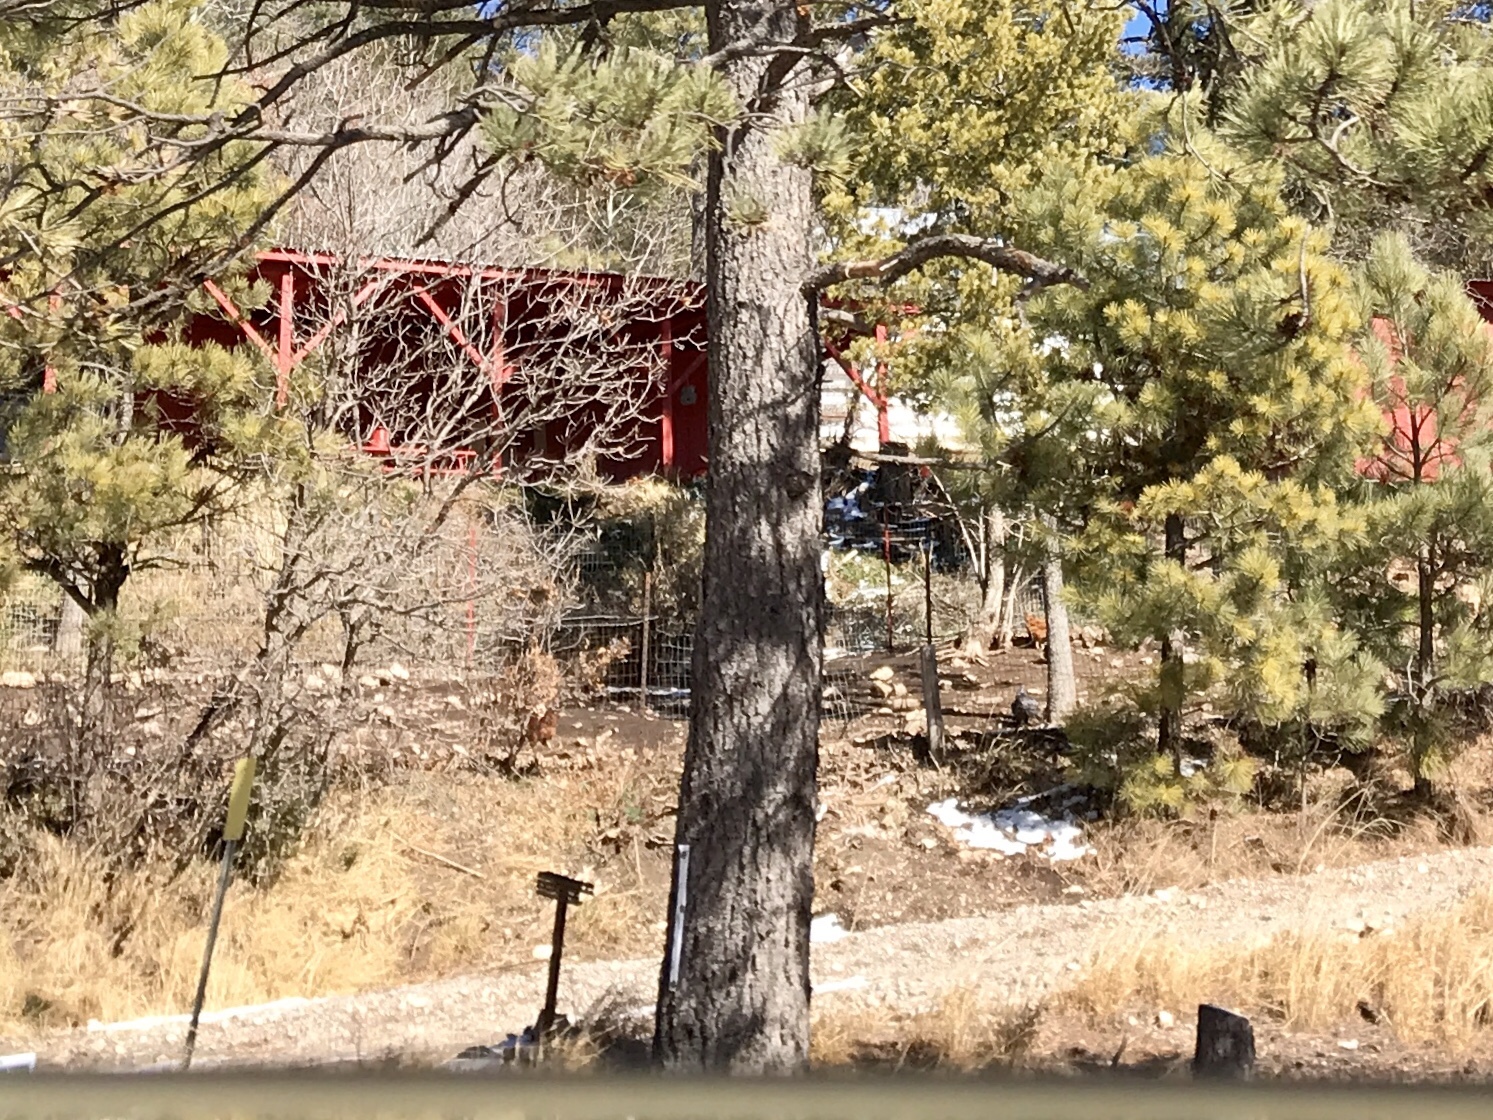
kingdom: Plantae
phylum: Tracheophyta
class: Pinopsida
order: Pinales
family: Pinaceae
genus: Pinus
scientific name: Pinus ponderosa
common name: Western yellow-pine
